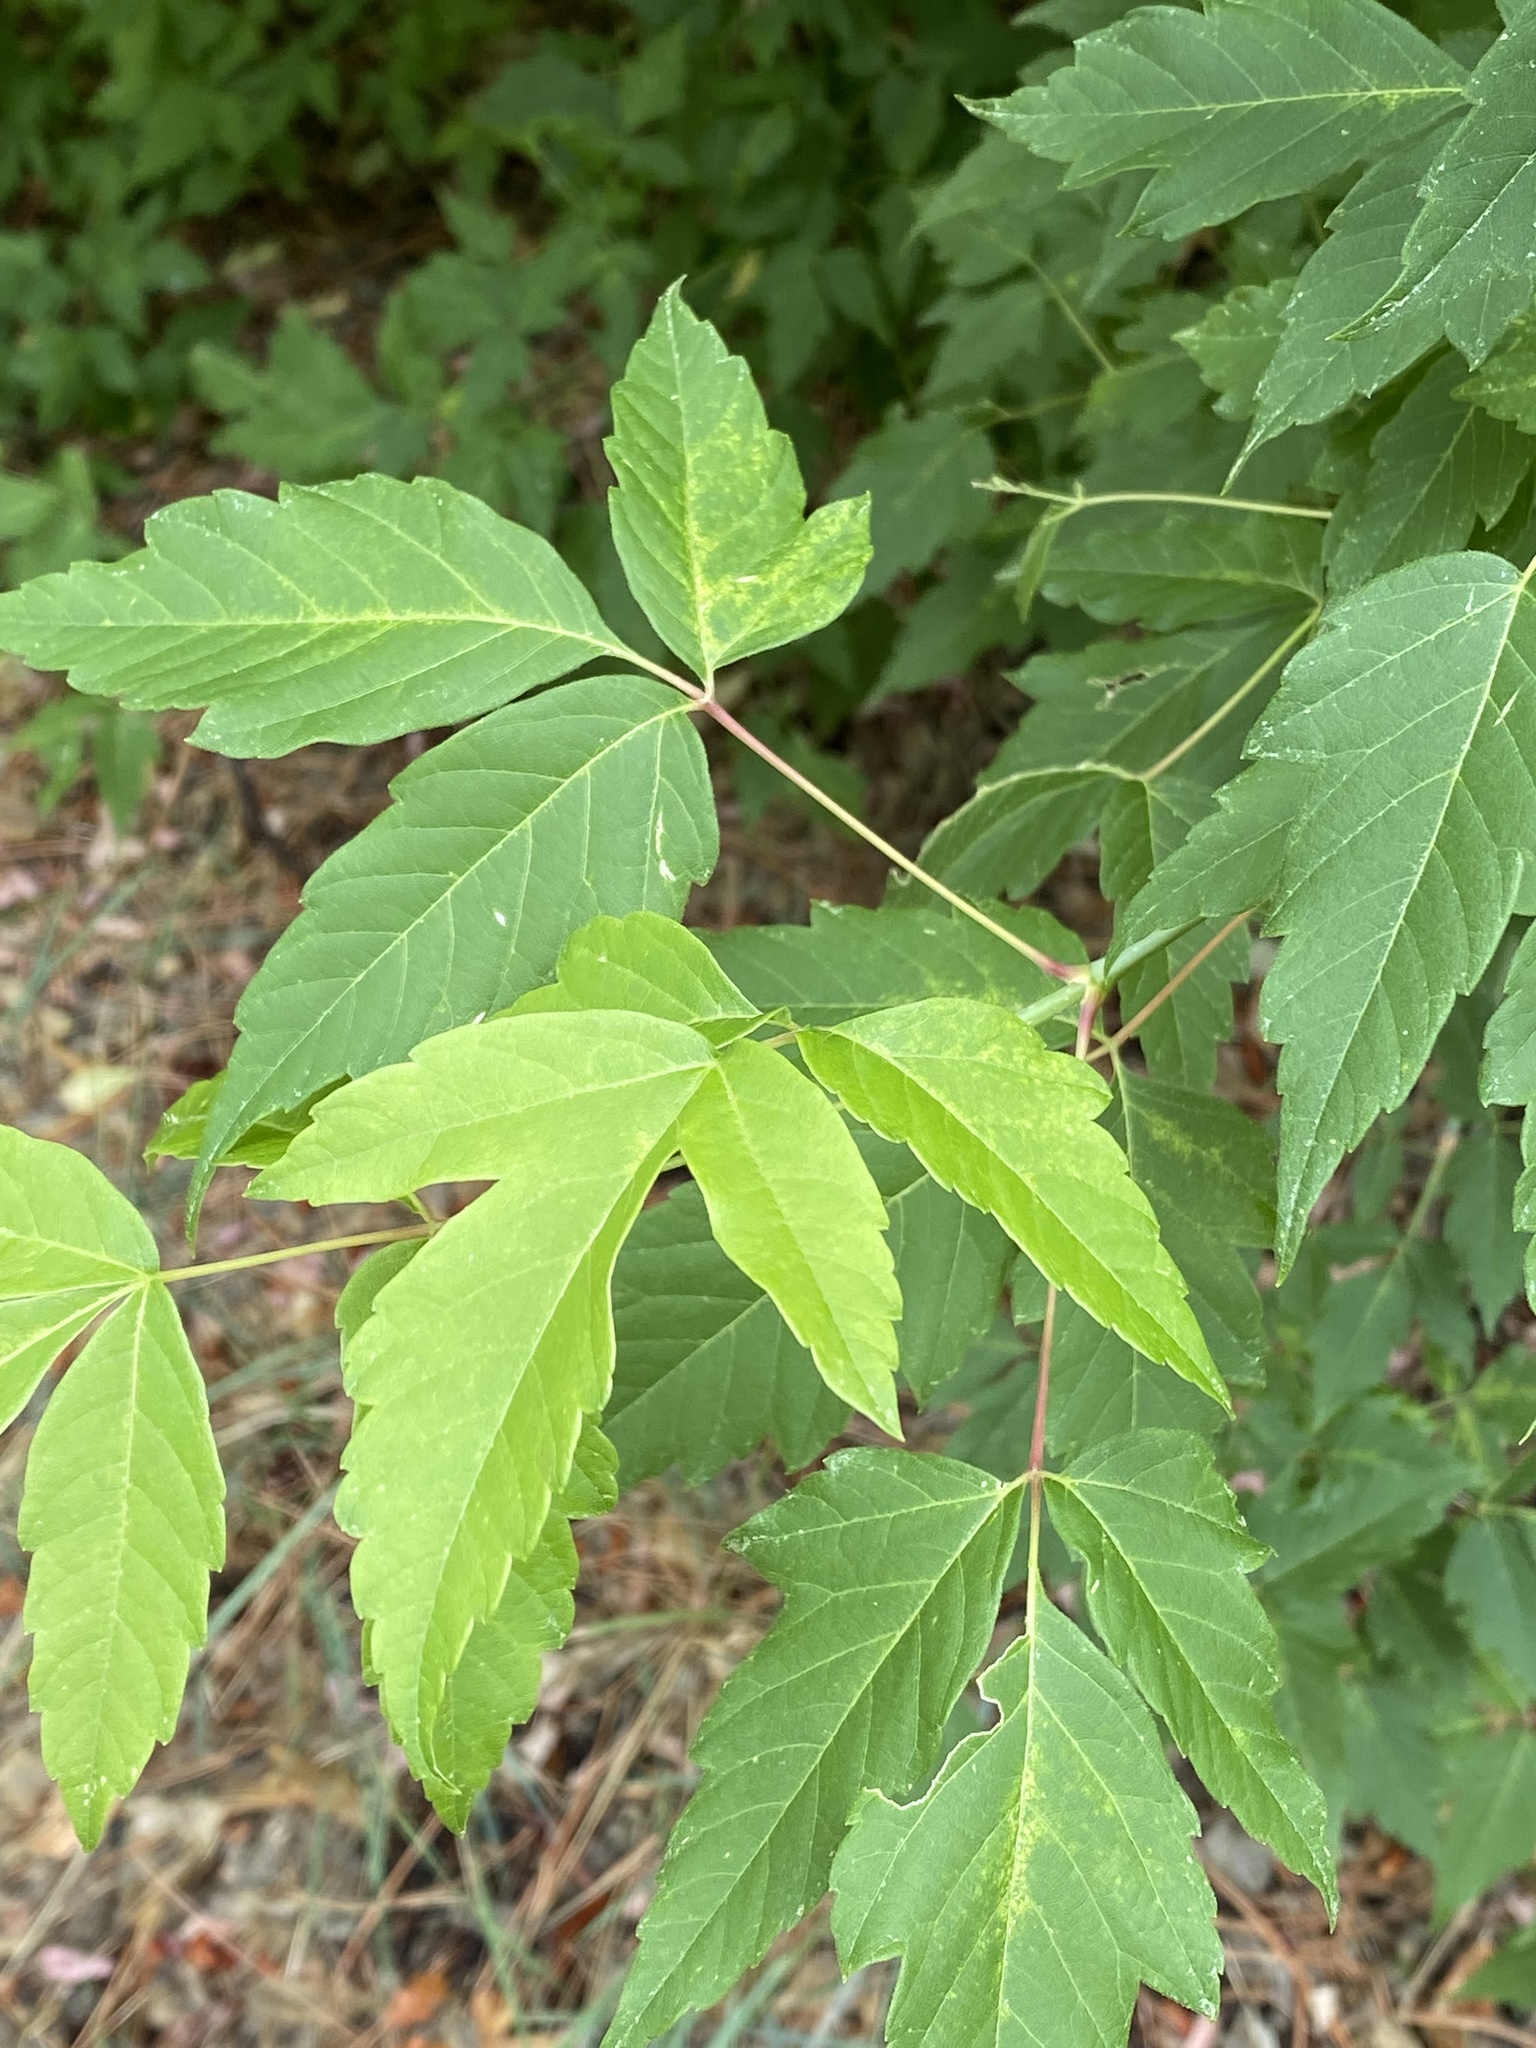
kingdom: Plantae
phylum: Tracheophyta
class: Magnoliopsida
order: Sapindales
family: Sapindaceae
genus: Acer
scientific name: Acer negundo
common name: Ashleaf maple
